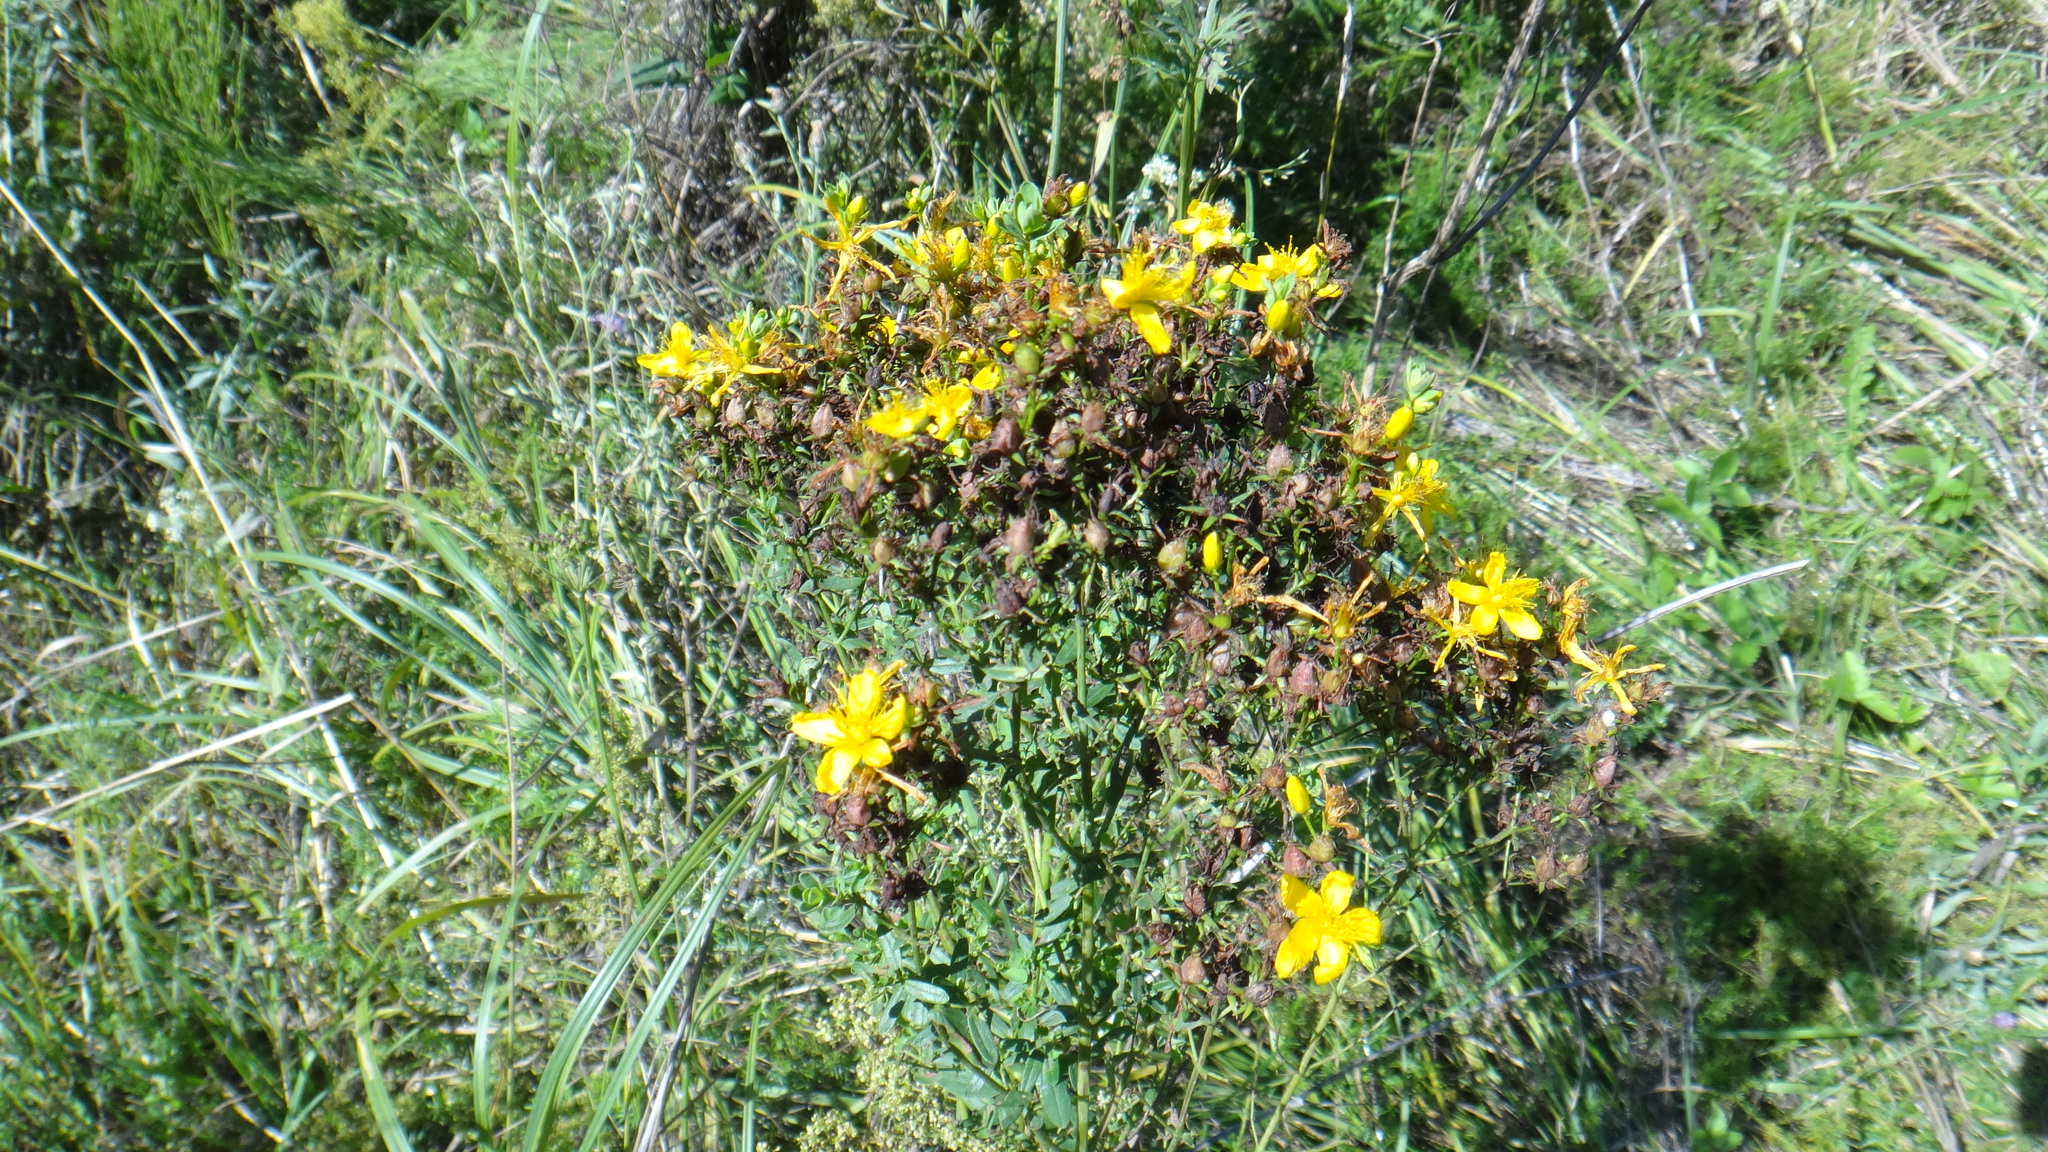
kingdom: Plantae
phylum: Tracheophyta
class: Magnoliopsida
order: Malpighiales
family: Hypericaceae
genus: Hypericum
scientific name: Hypericum perforatum
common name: Common st. johnswort
